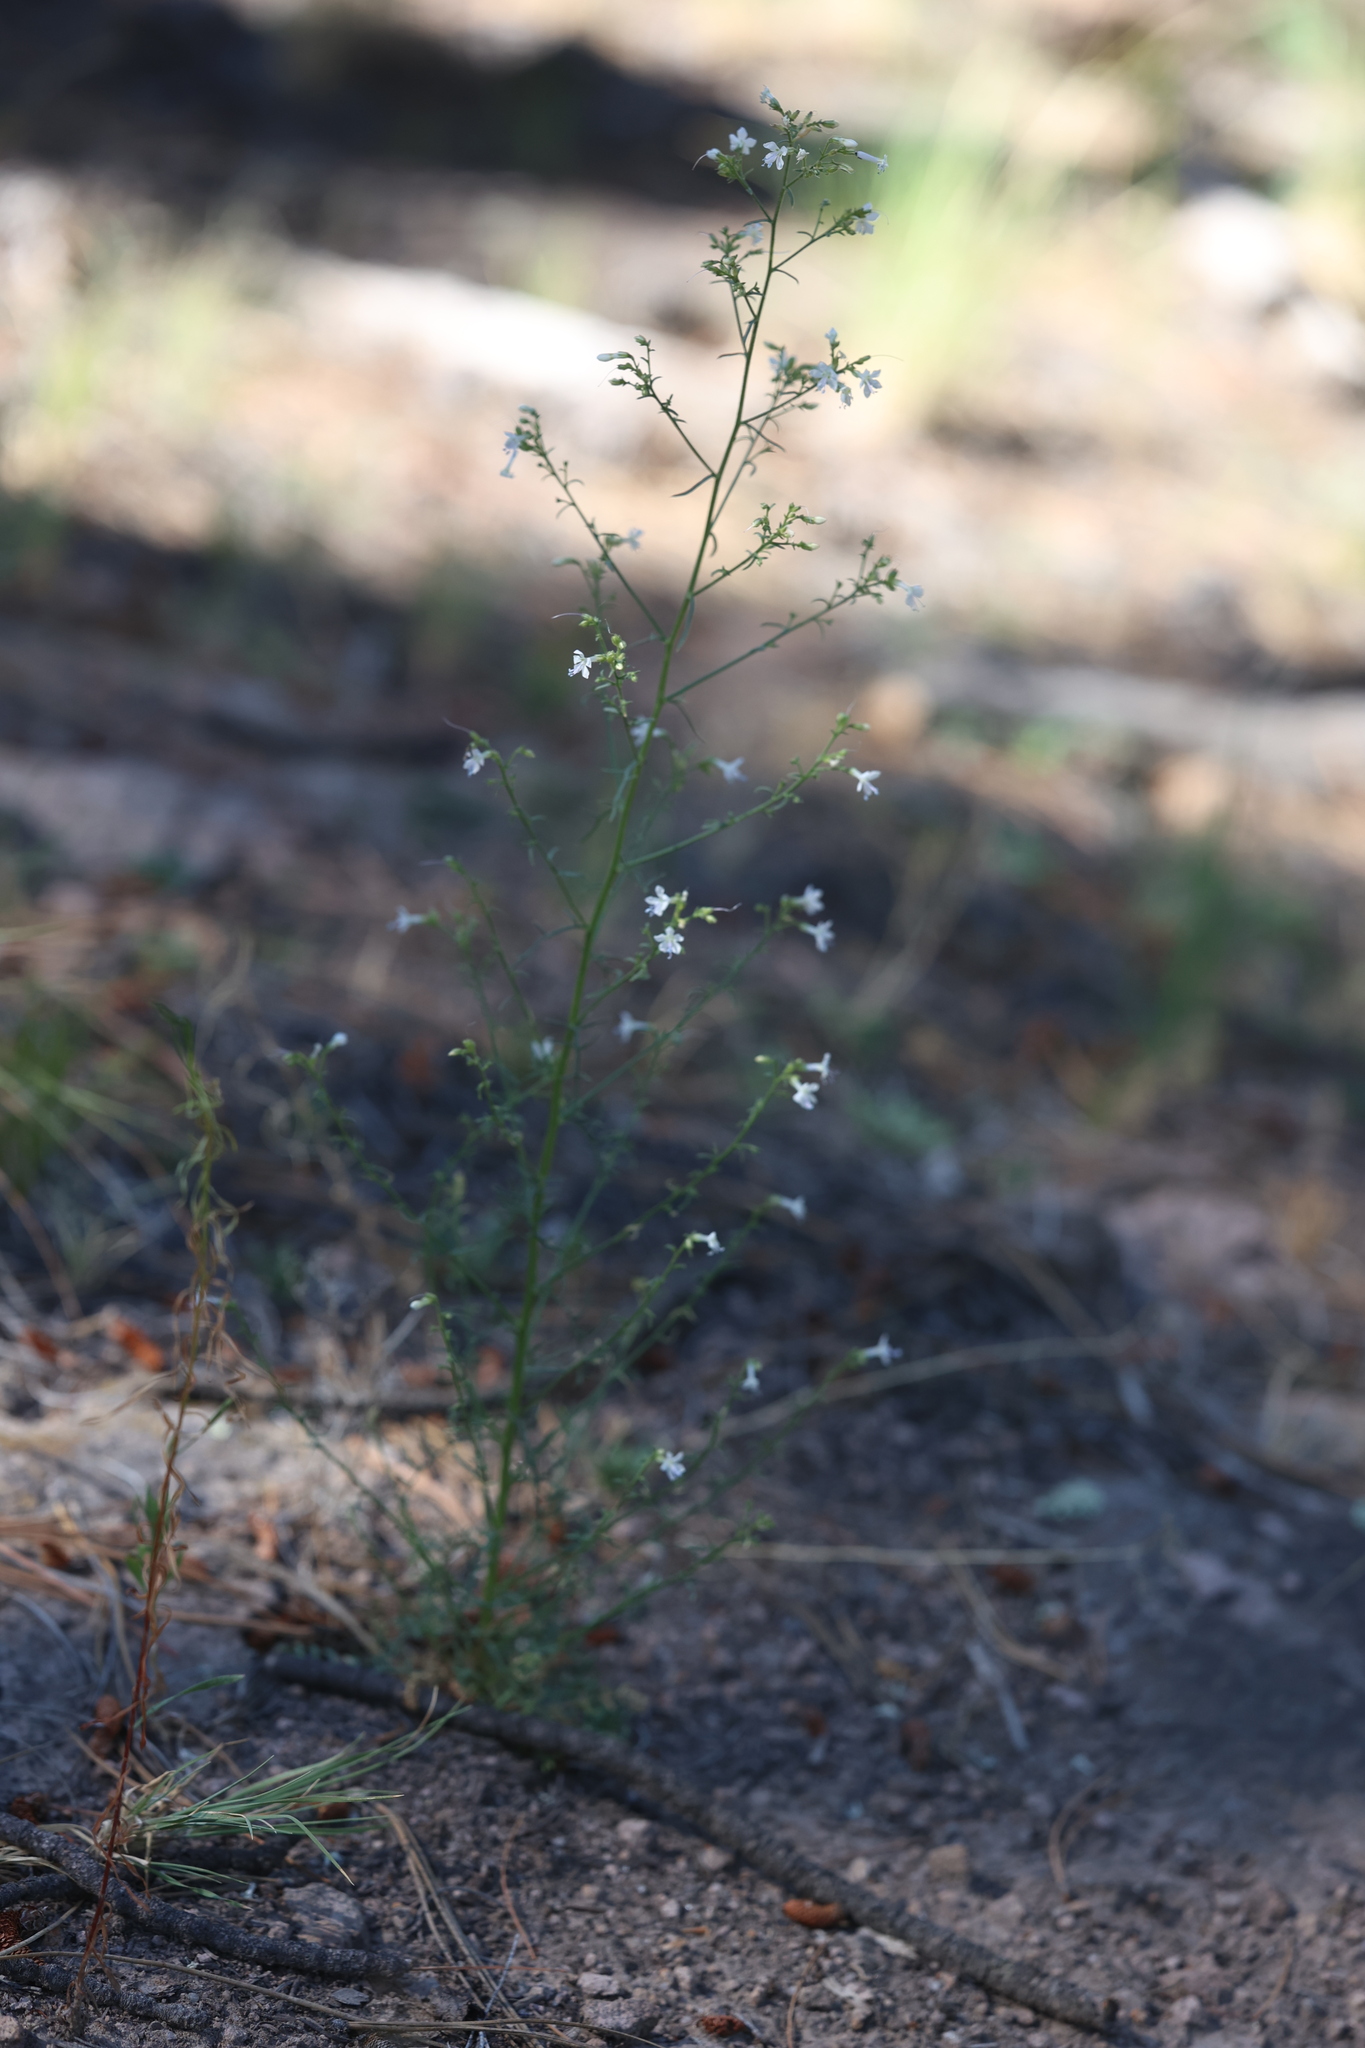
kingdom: Plantae
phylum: Tracheophyta
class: Magnoliopsida
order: Ericales
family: Polemoniaceae
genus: Aliciella
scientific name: Aliciella pinnatifida
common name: Sticky gilia
